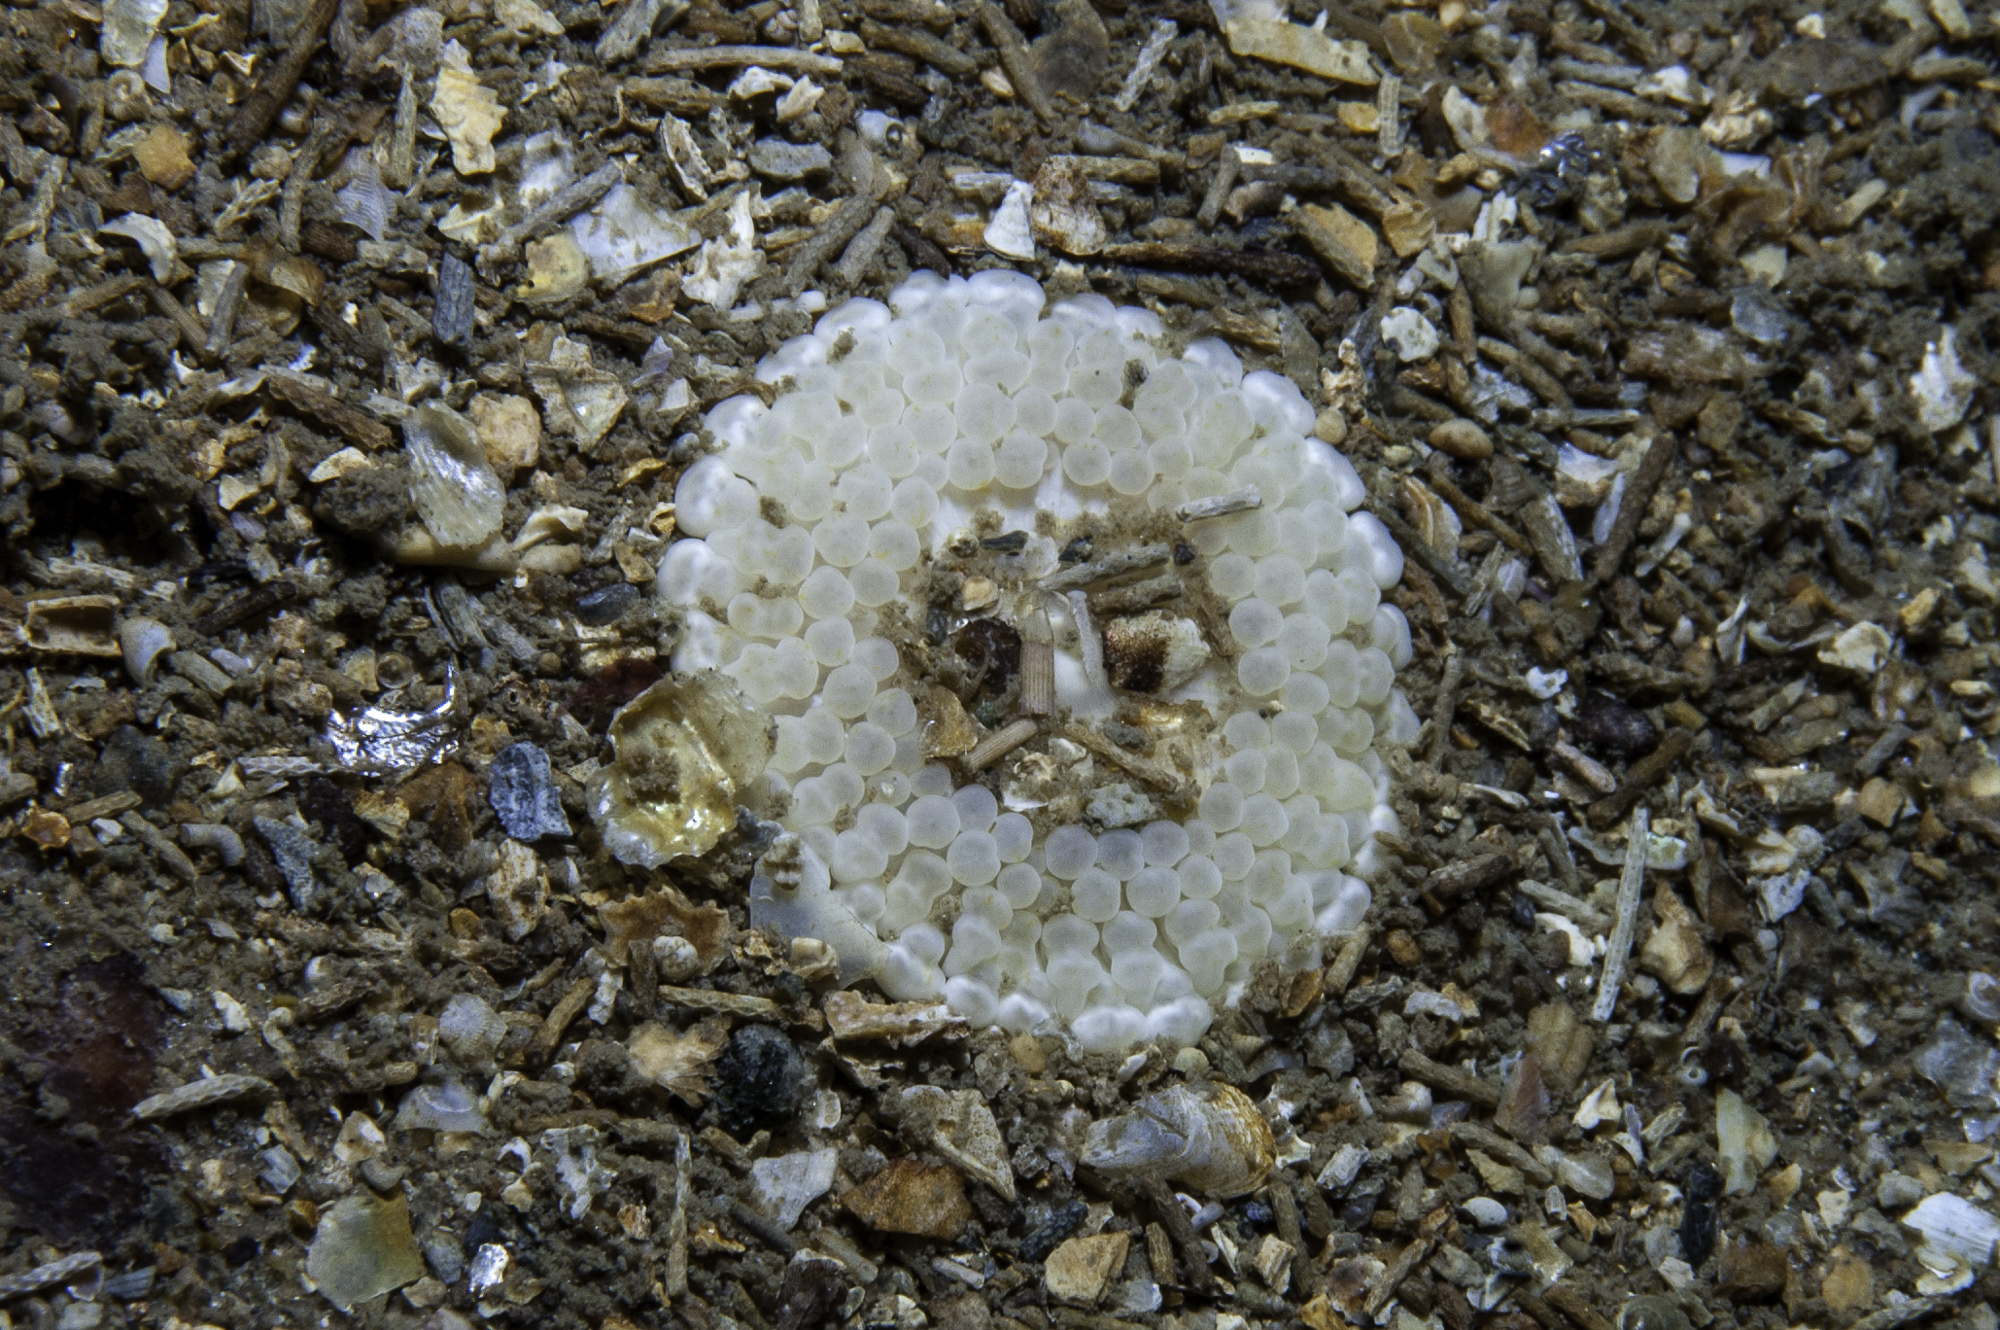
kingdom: Animalia
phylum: Cnidaria
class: Anthozoa
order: Actiniaria
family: Capneidae
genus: Capnea
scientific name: Capnea sanguinea
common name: Imperial anemone
